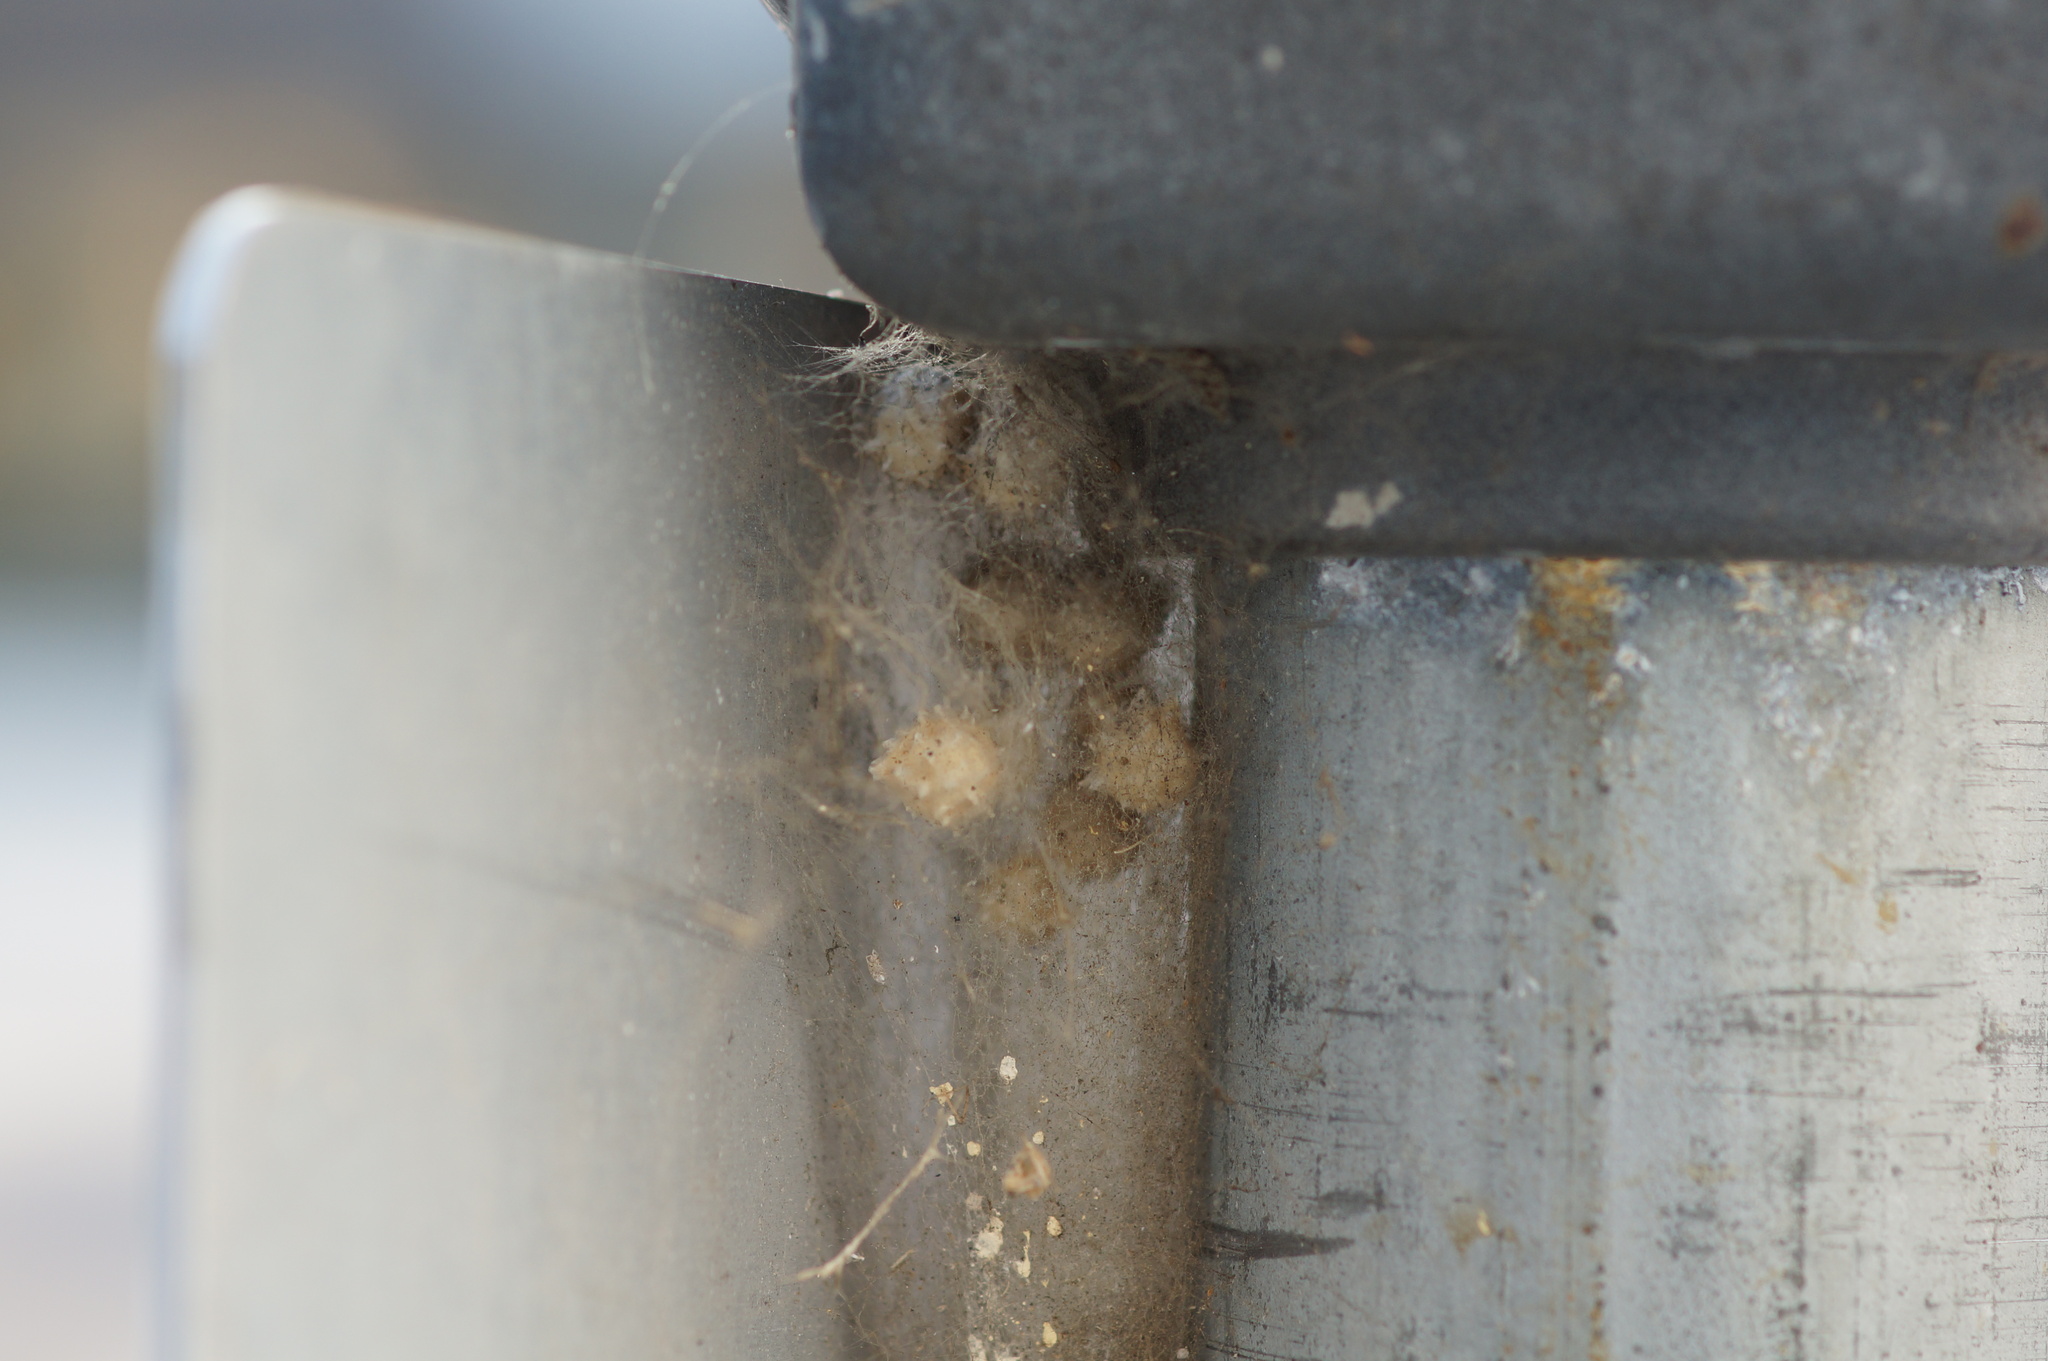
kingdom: Animalia
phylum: Arthropoda
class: Arachnida
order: Araneae
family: Theridiidae
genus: Latrodectus
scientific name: Latrodectus geometricus
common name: Brown widow spider
